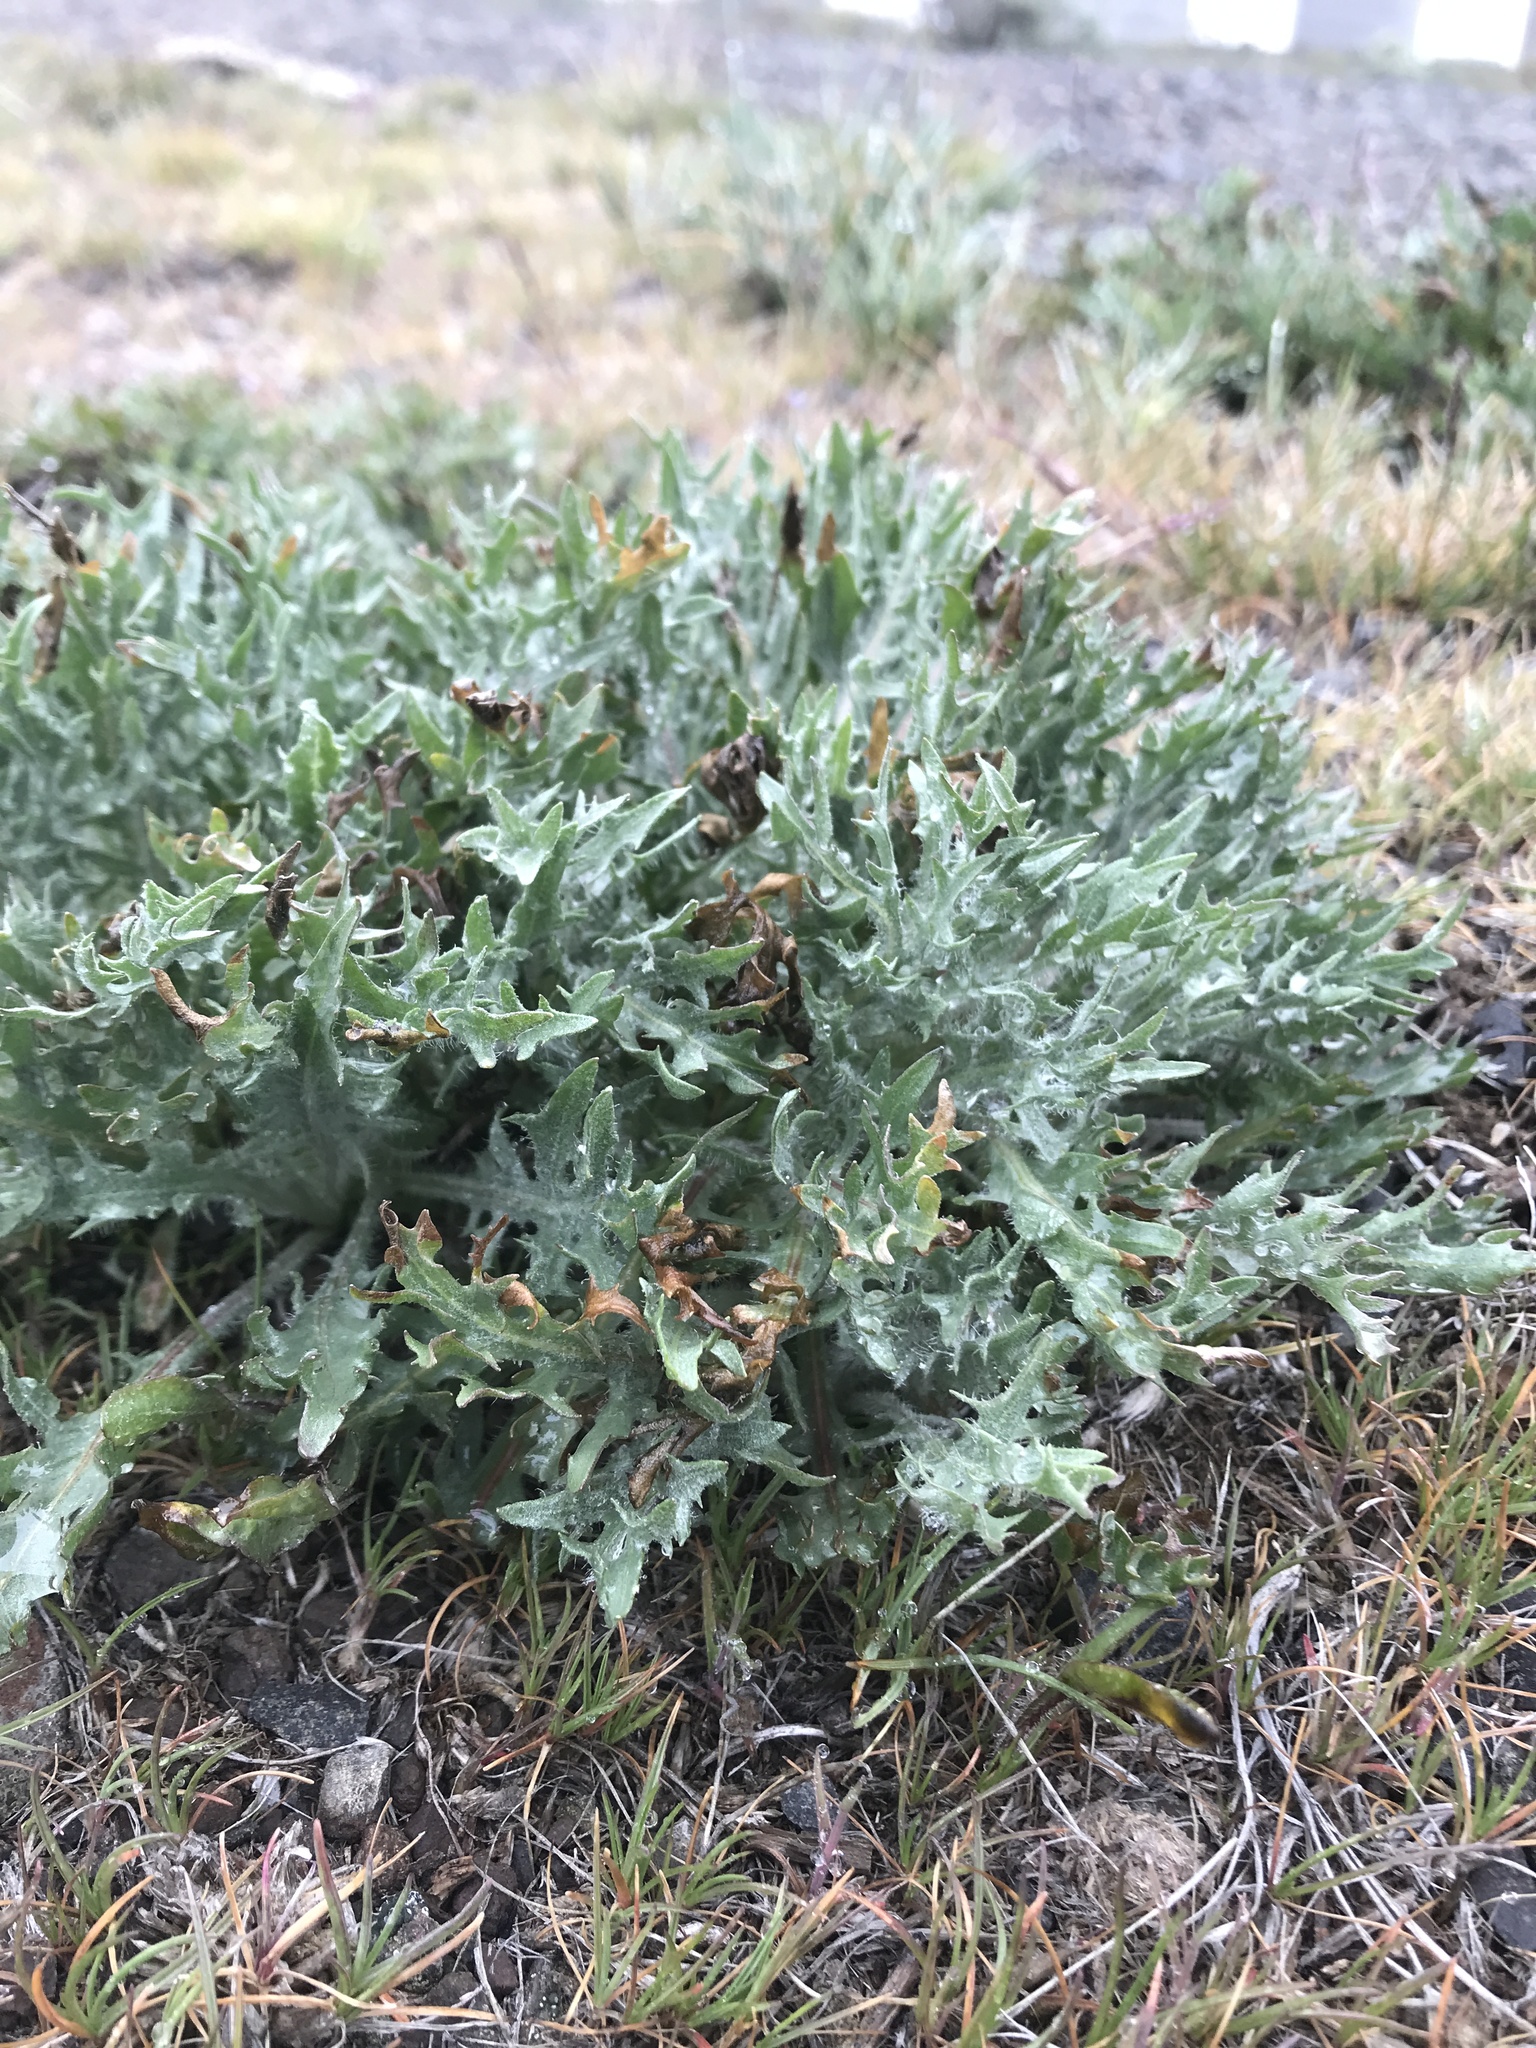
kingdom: Plantae
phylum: Tracheophyta
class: Magnoliopsida
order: Asterales
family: Asteraceae
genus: Crepis
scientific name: Crepis modocensis
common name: Siskiyou hawk's-beard
